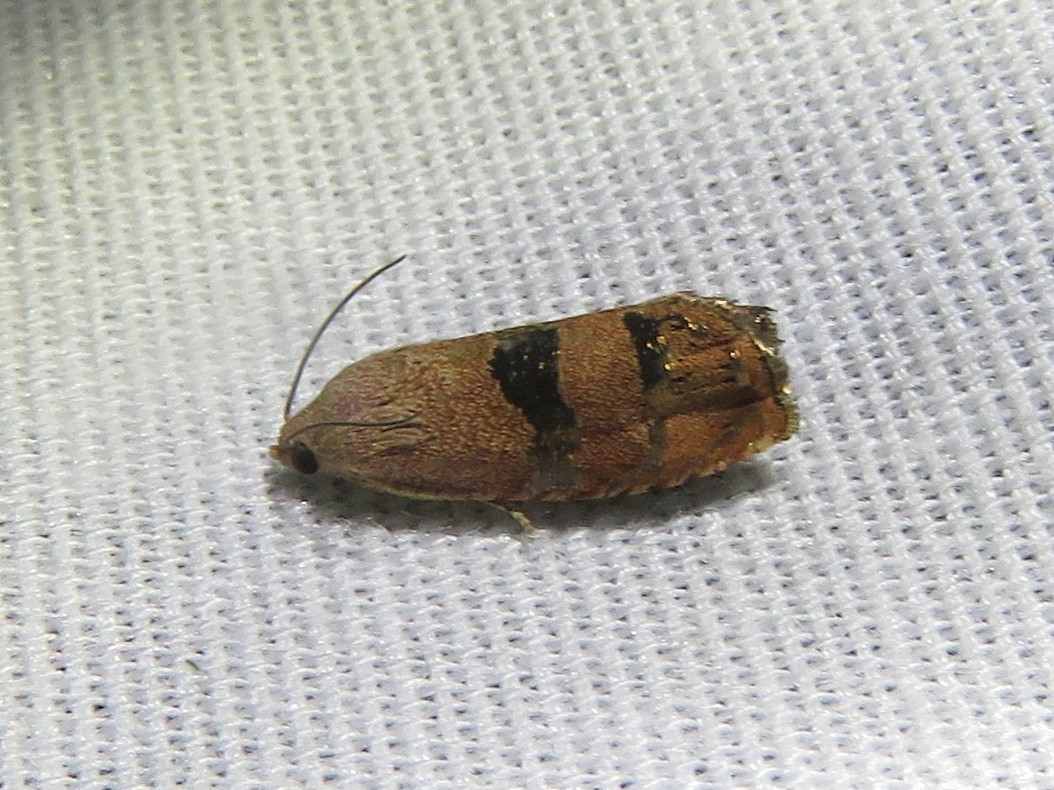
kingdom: Animalia
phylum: Arthropoda
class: Insecta
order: Lepidoptera
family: Tortricidae
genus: Cydia
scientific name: Cydia latiferreana
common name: Filbertworm moth
